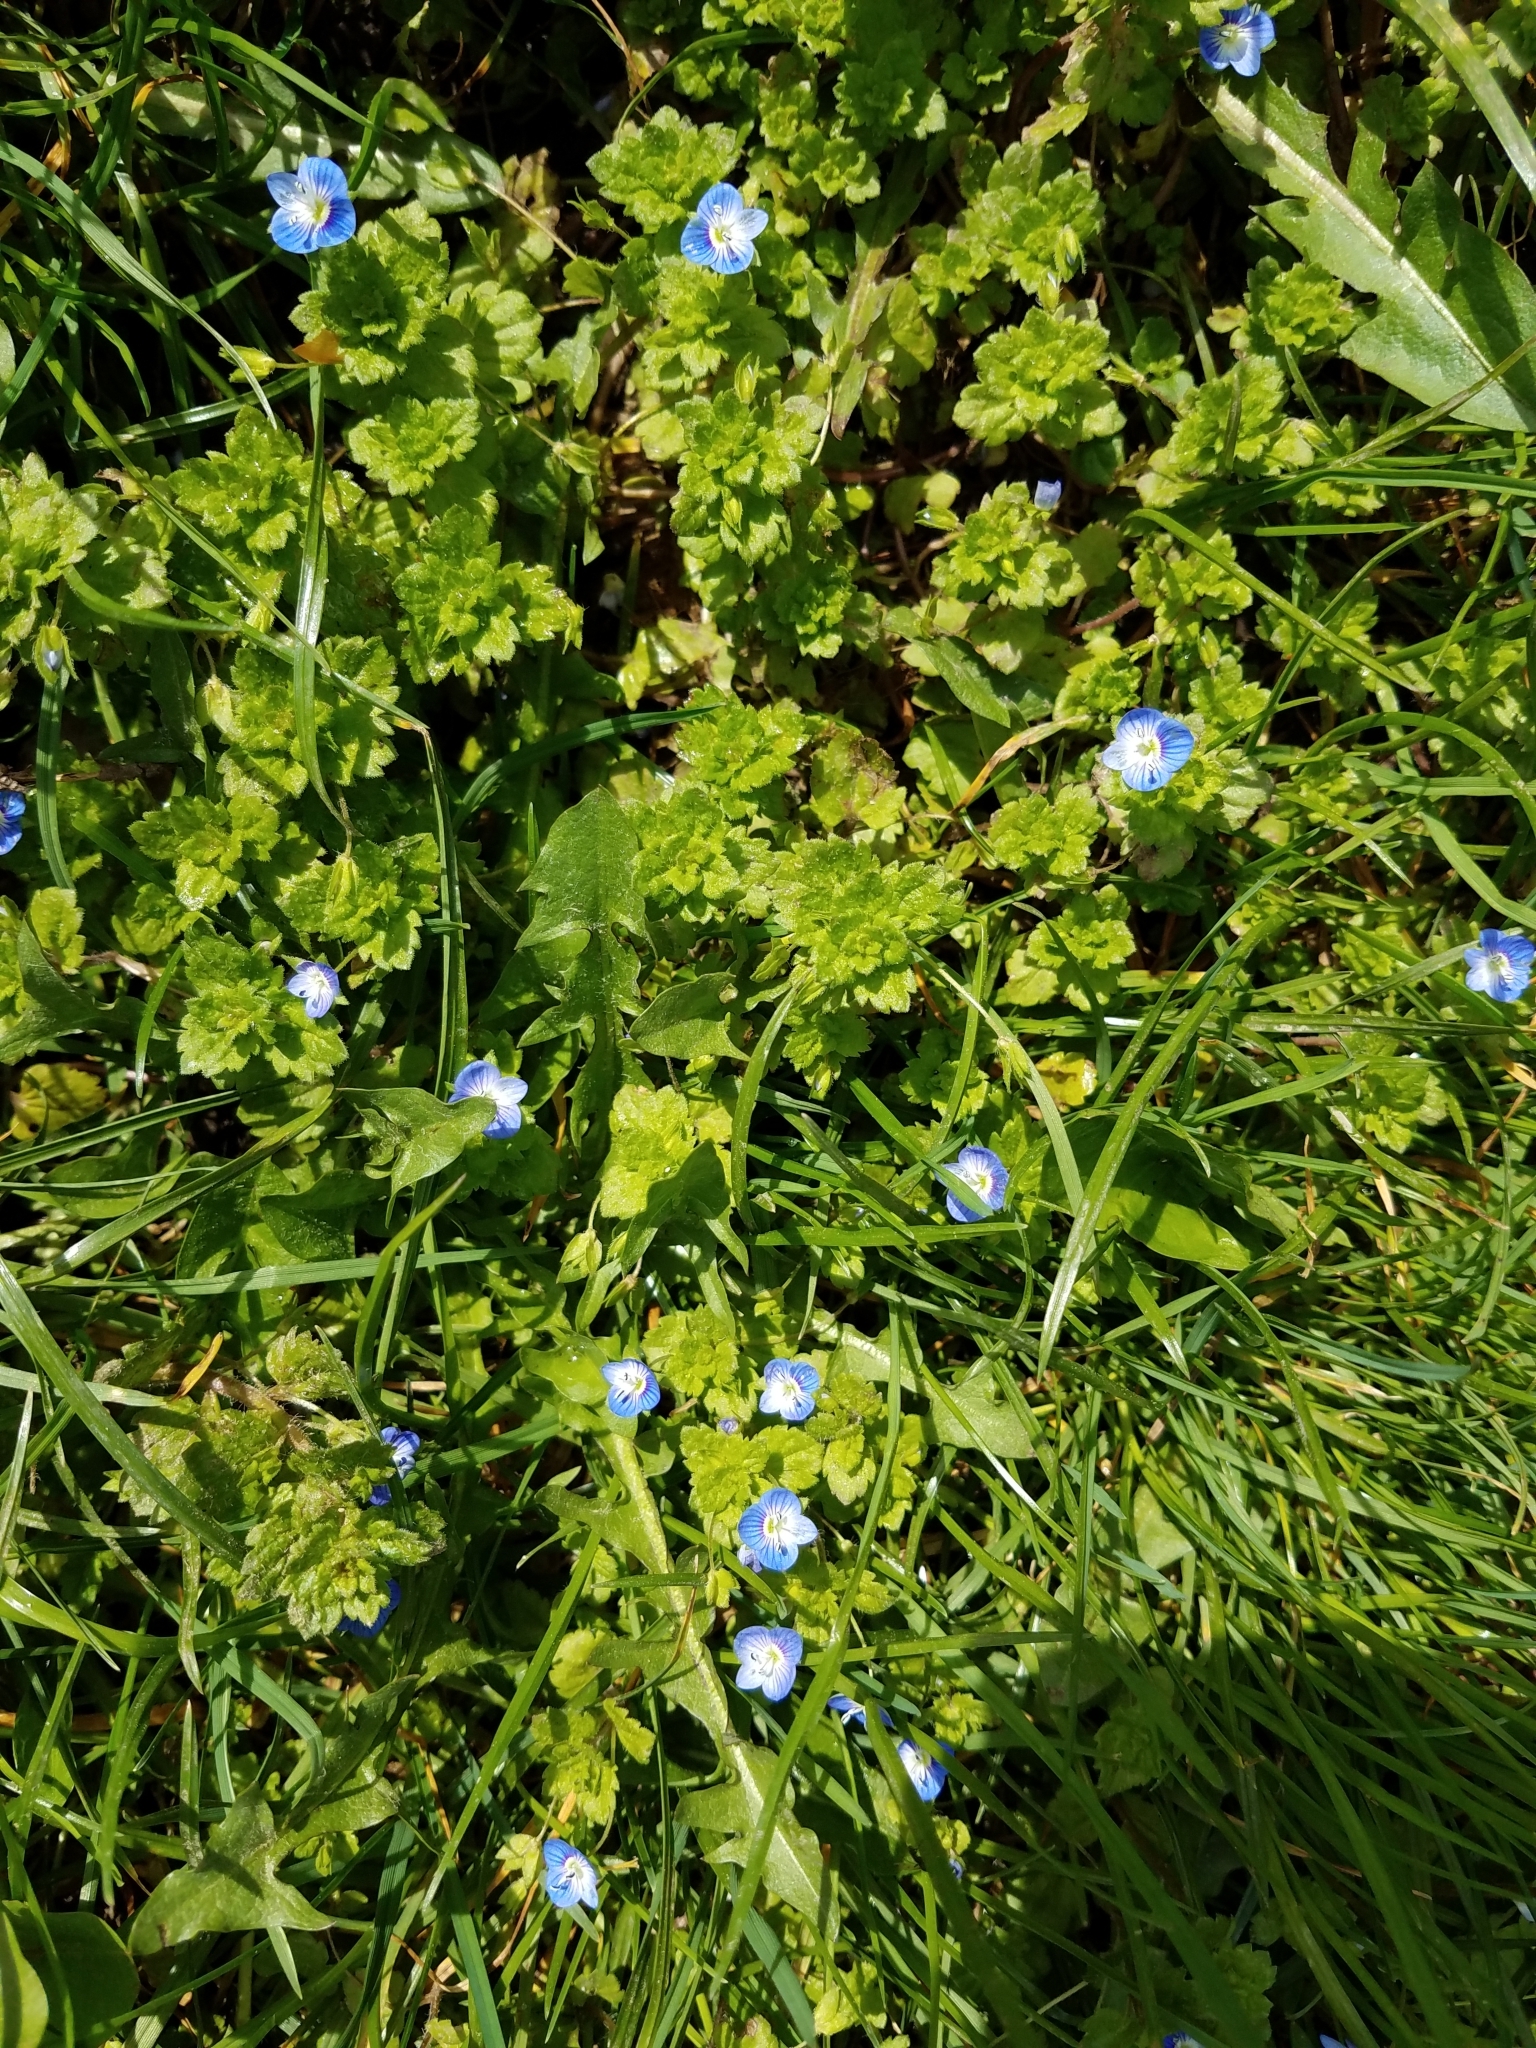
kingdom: Plantae
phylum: Tracheophyta
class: Magnoliopsida
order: Lamiales
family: Plantaginaceae
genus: Veronica
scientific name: Veronica persica
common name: Common field-speedwell
